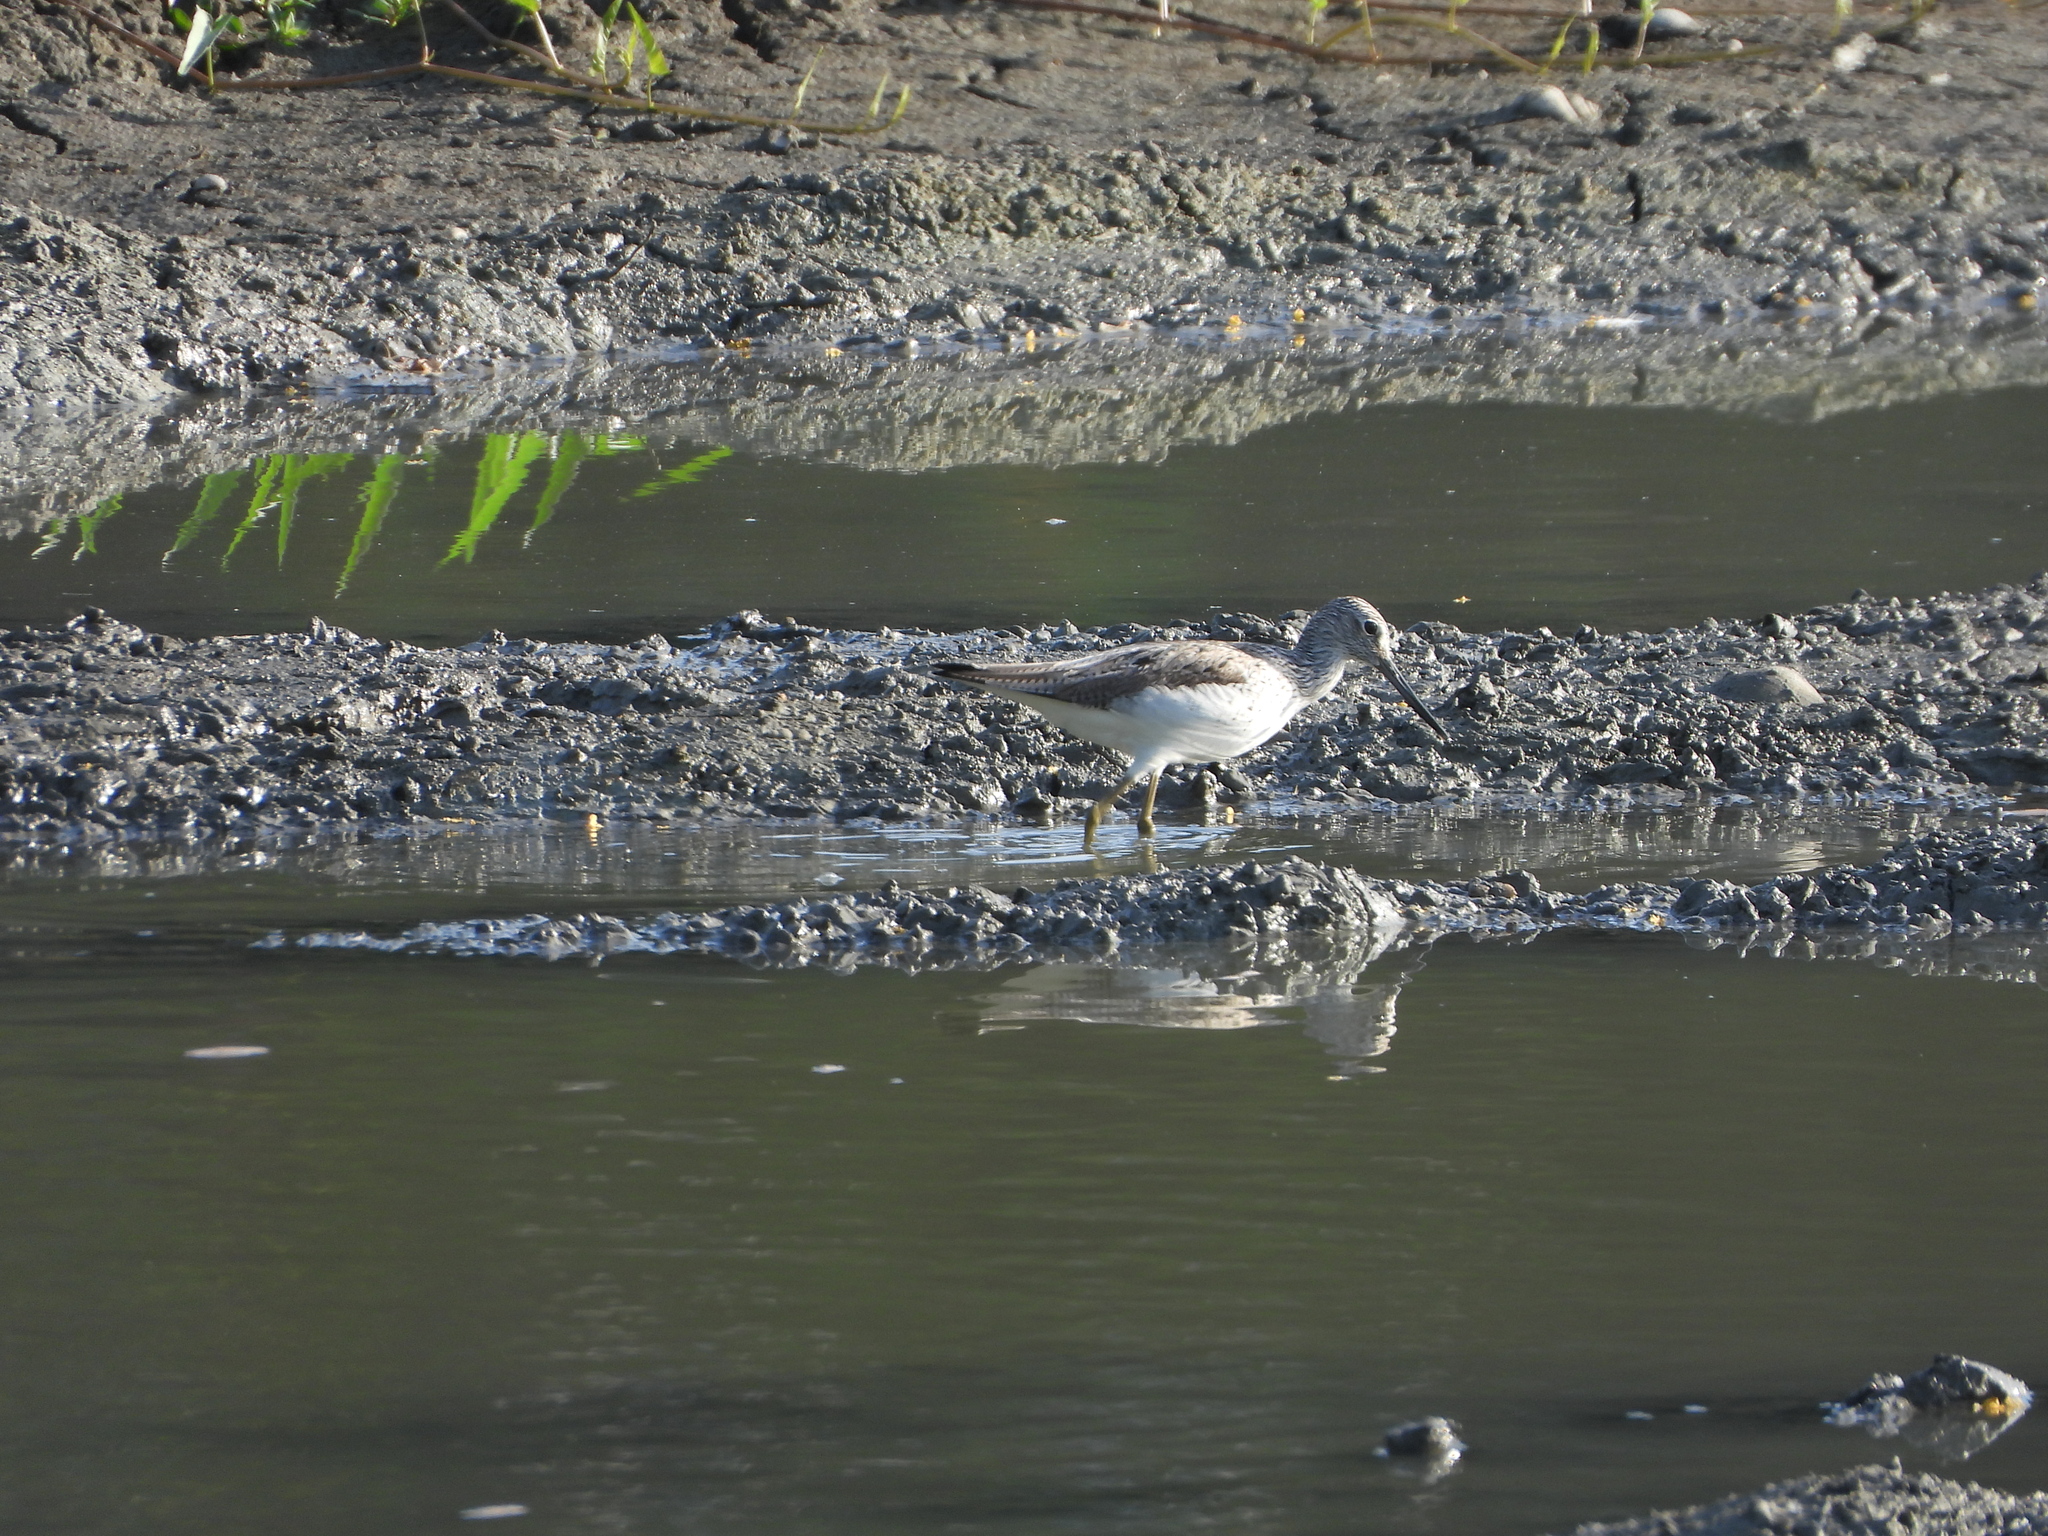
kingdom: Animalia
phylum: Chordata
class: Aves
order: Charadriiformes
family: Scolopacidae
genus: Tringa
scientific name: Tringa nebularia
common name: Common greenshank
